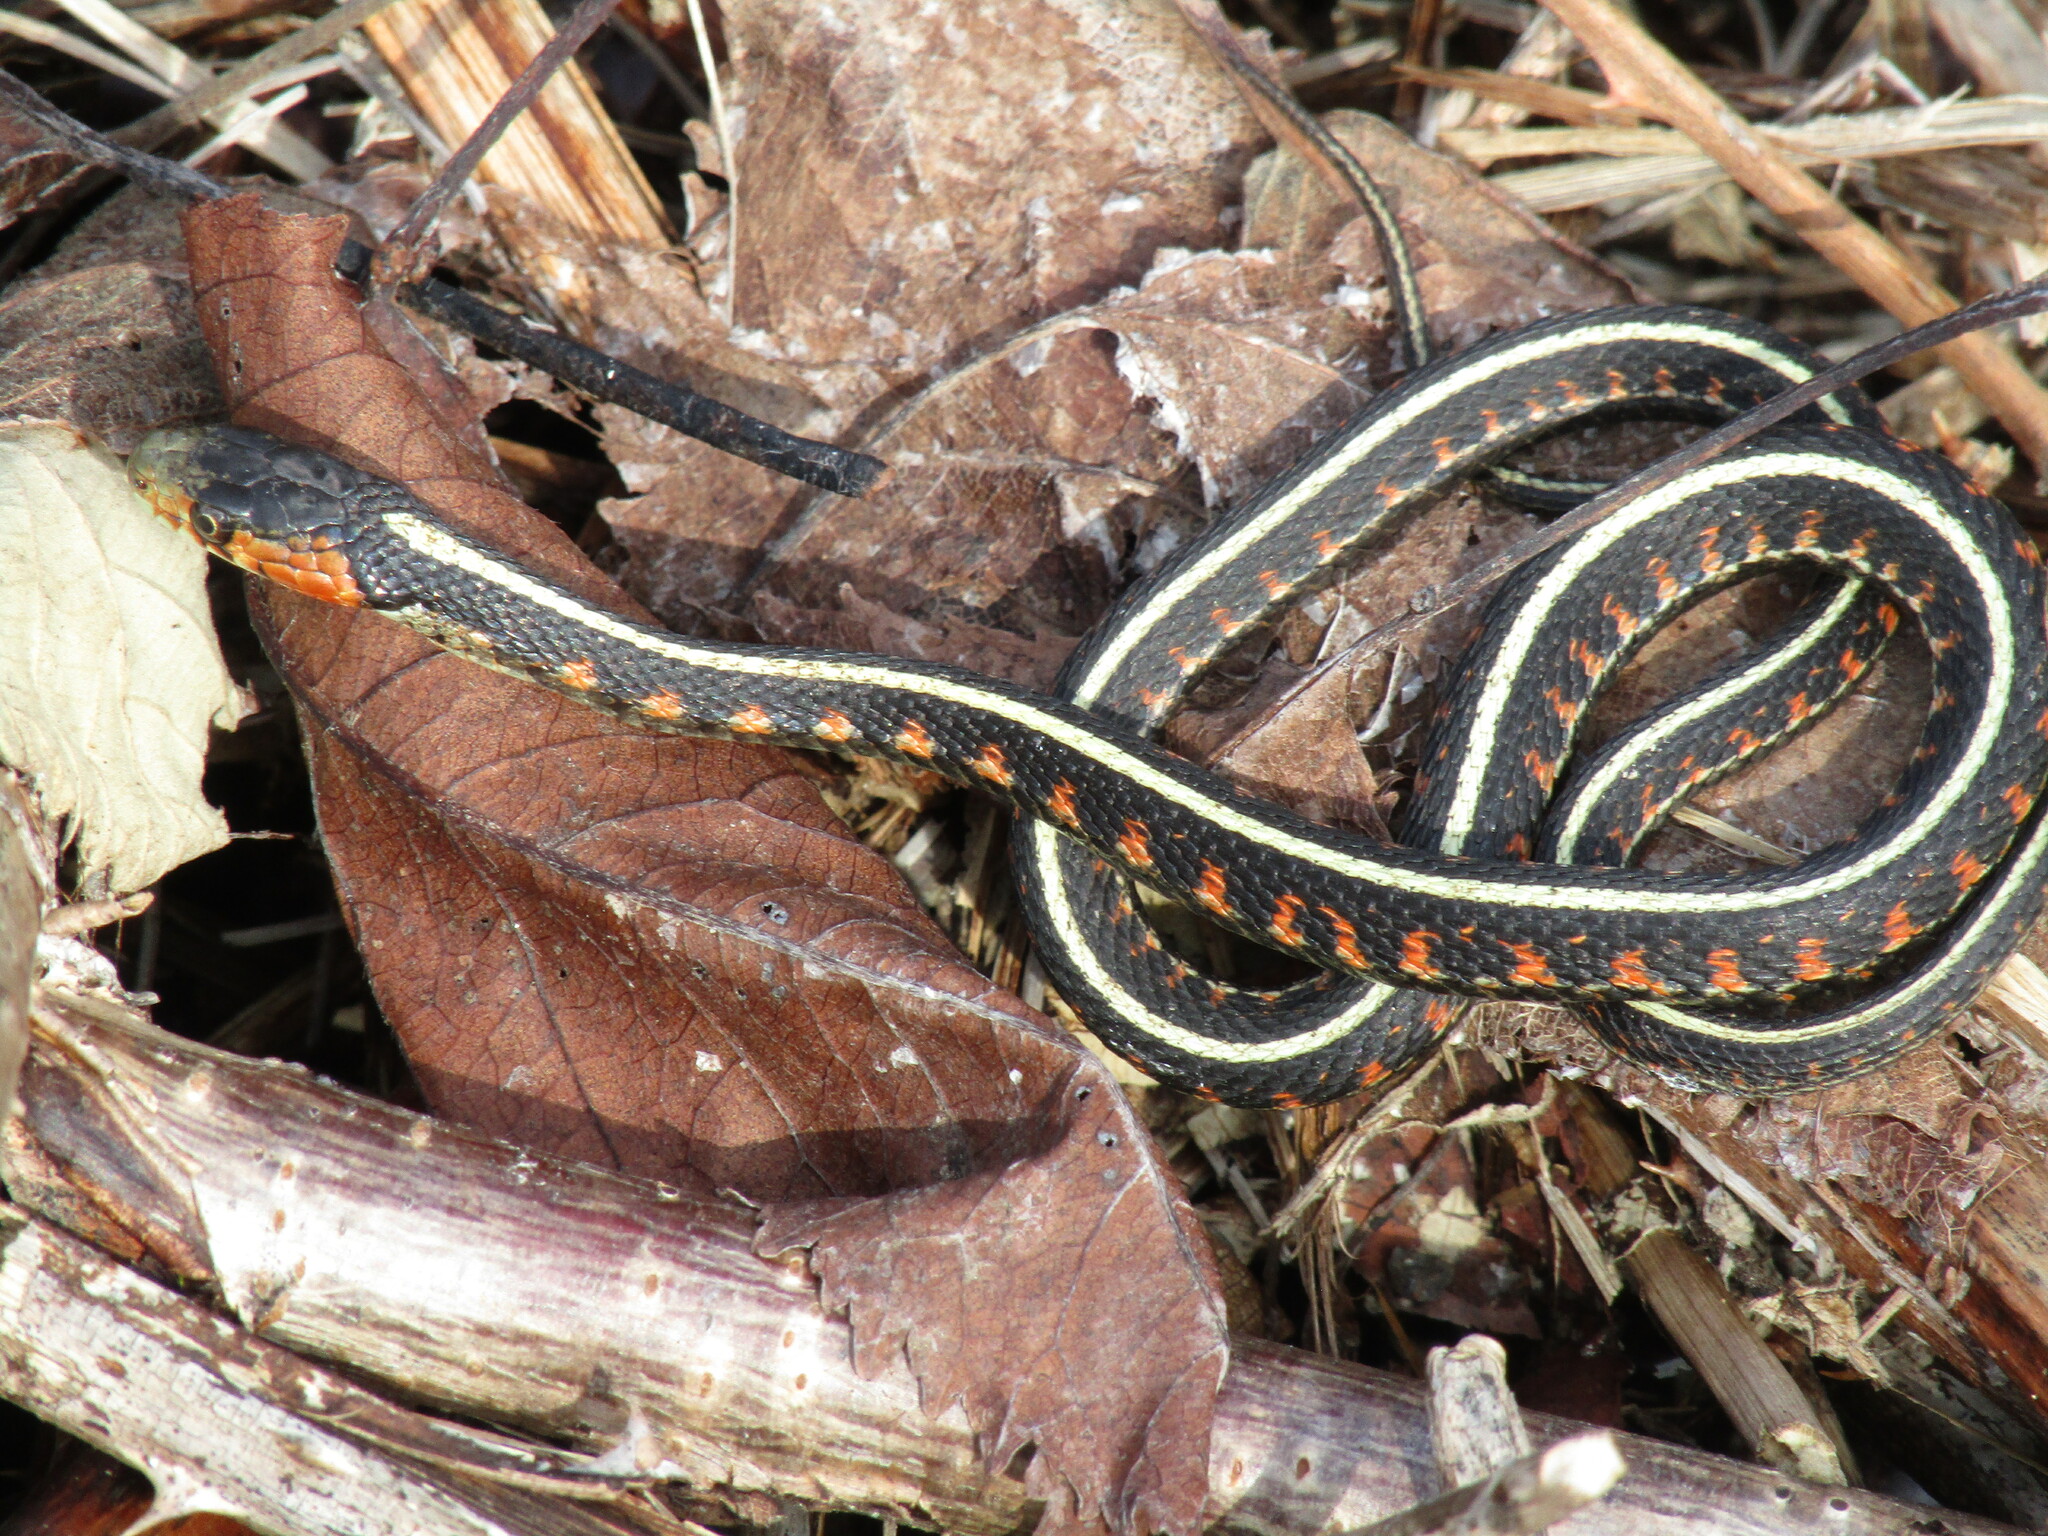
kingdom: Animalia
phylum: Chordata
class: Squamata
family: Colubridae
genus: Thamnophis
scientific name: Thamnophis sirtalis
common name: Common garter snake
